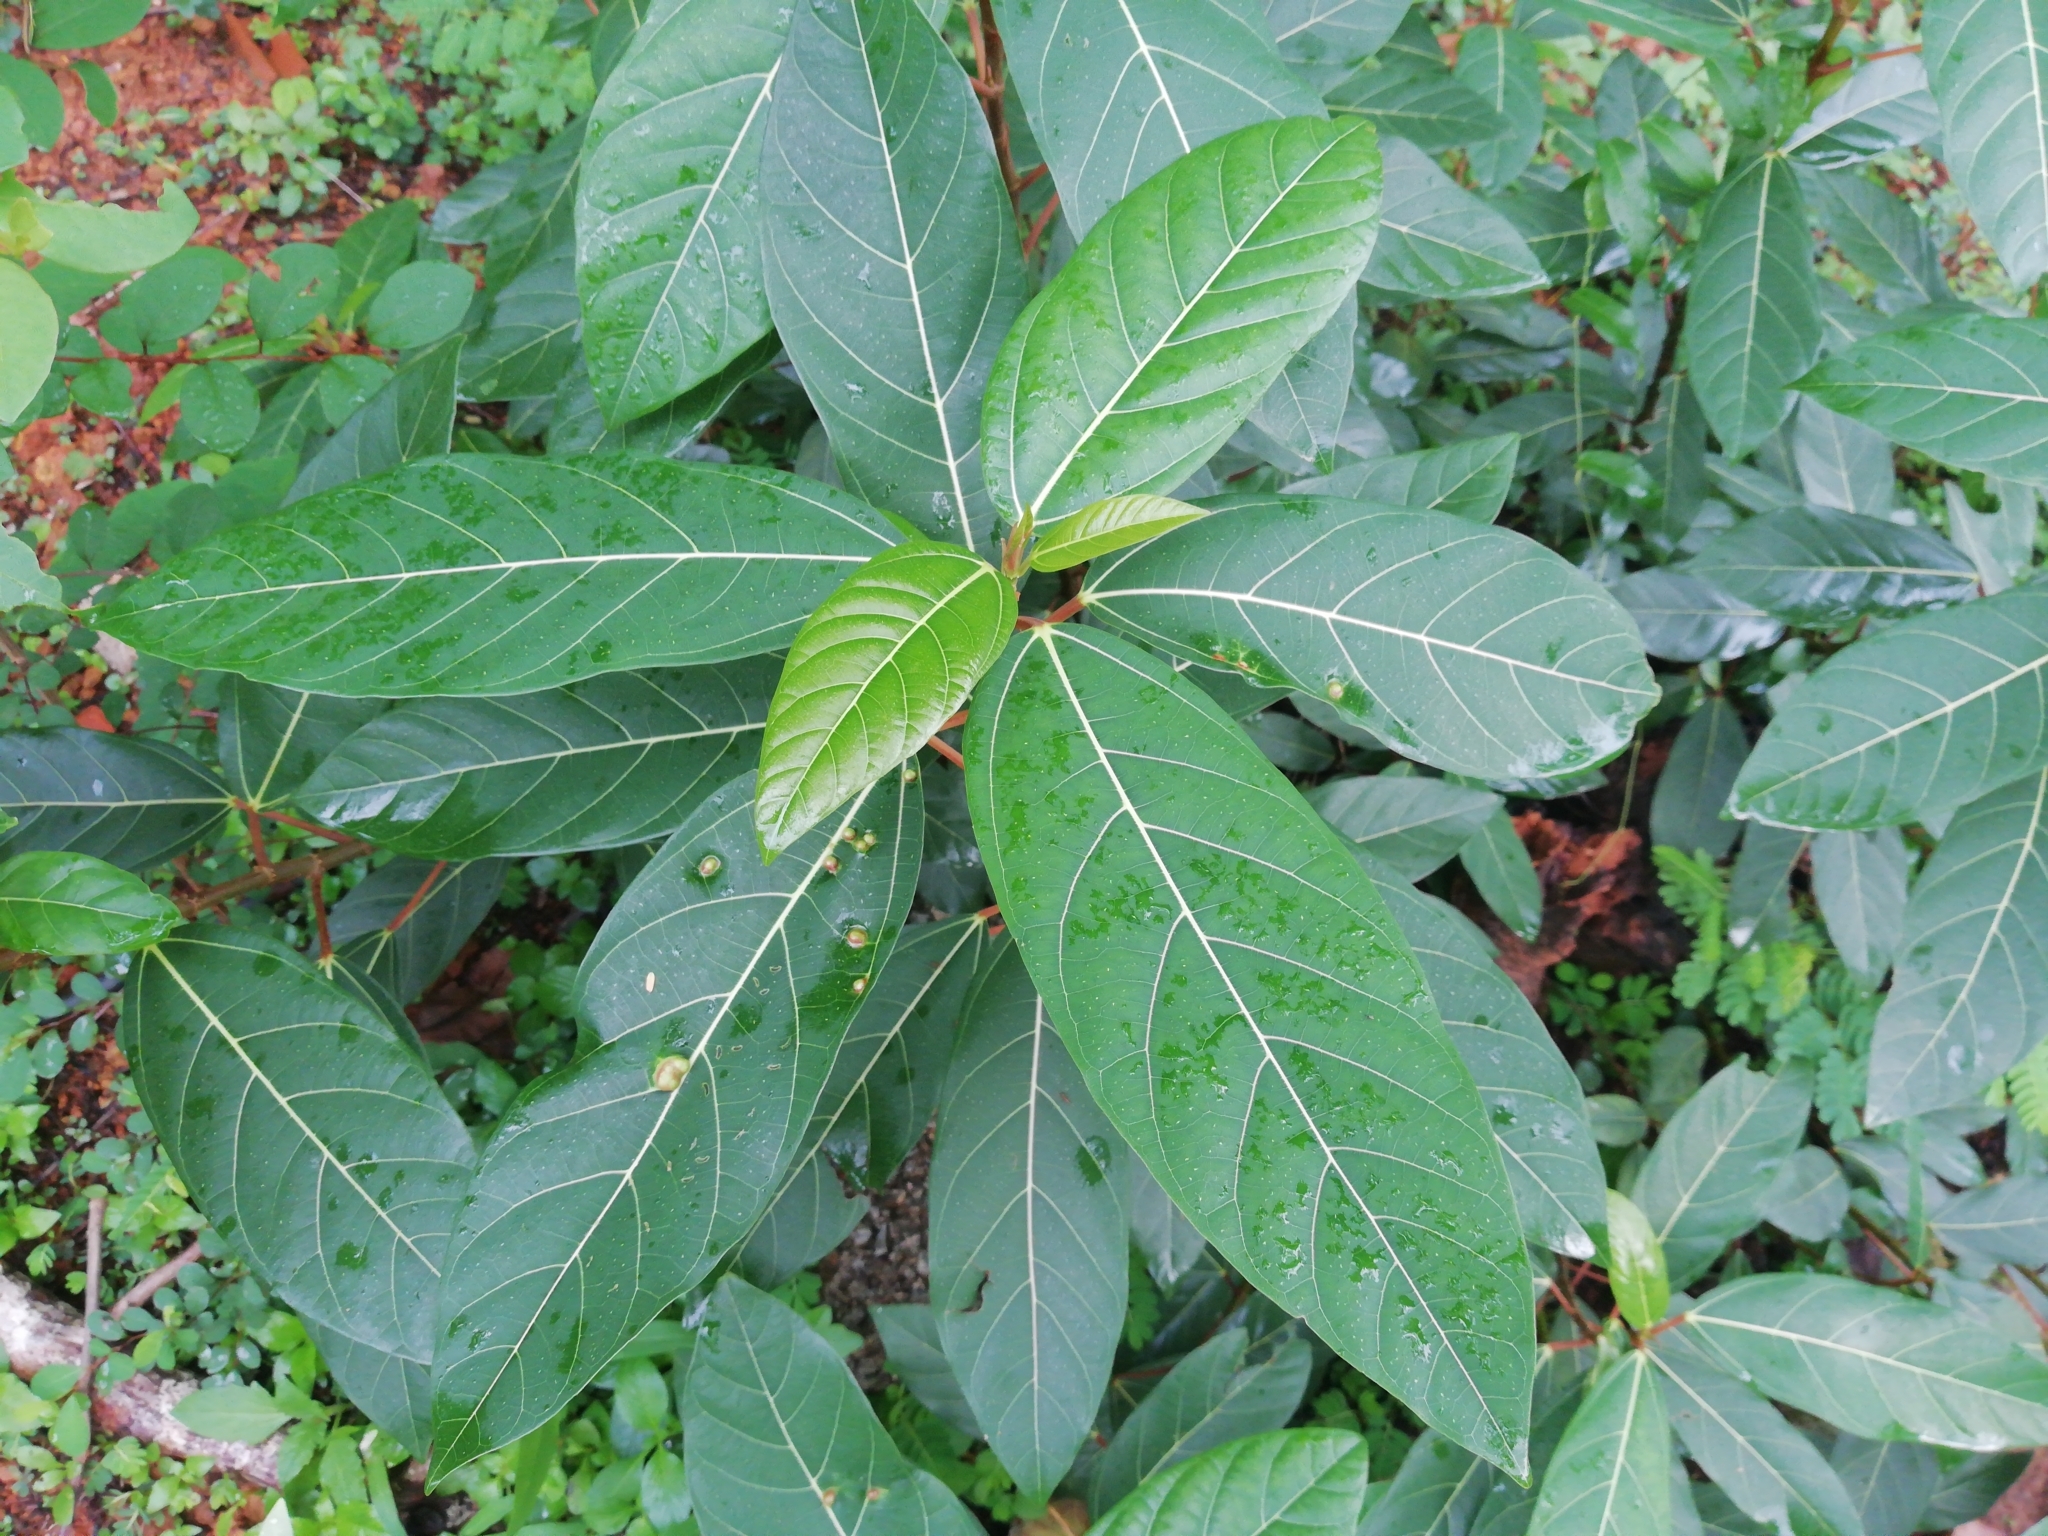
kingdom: Plantae
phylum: Tracheophyta
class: Magnoliopsida
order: Rosales
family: Moraceae
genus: Ficus
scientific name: Ficus racemosa
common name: Cluster fig
